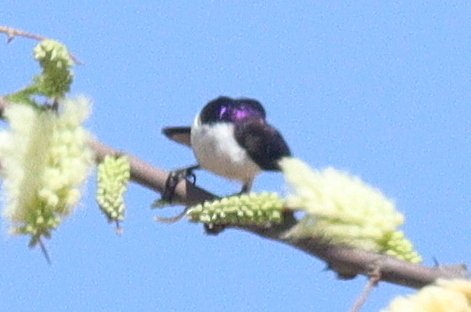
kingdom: Animalia
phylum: Chordata
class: Aves
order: Passeriformes
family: Nectariniidae
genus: Anthreptes
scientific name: Anthreptes orientalis
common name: Eastern violet-backed sunbird
